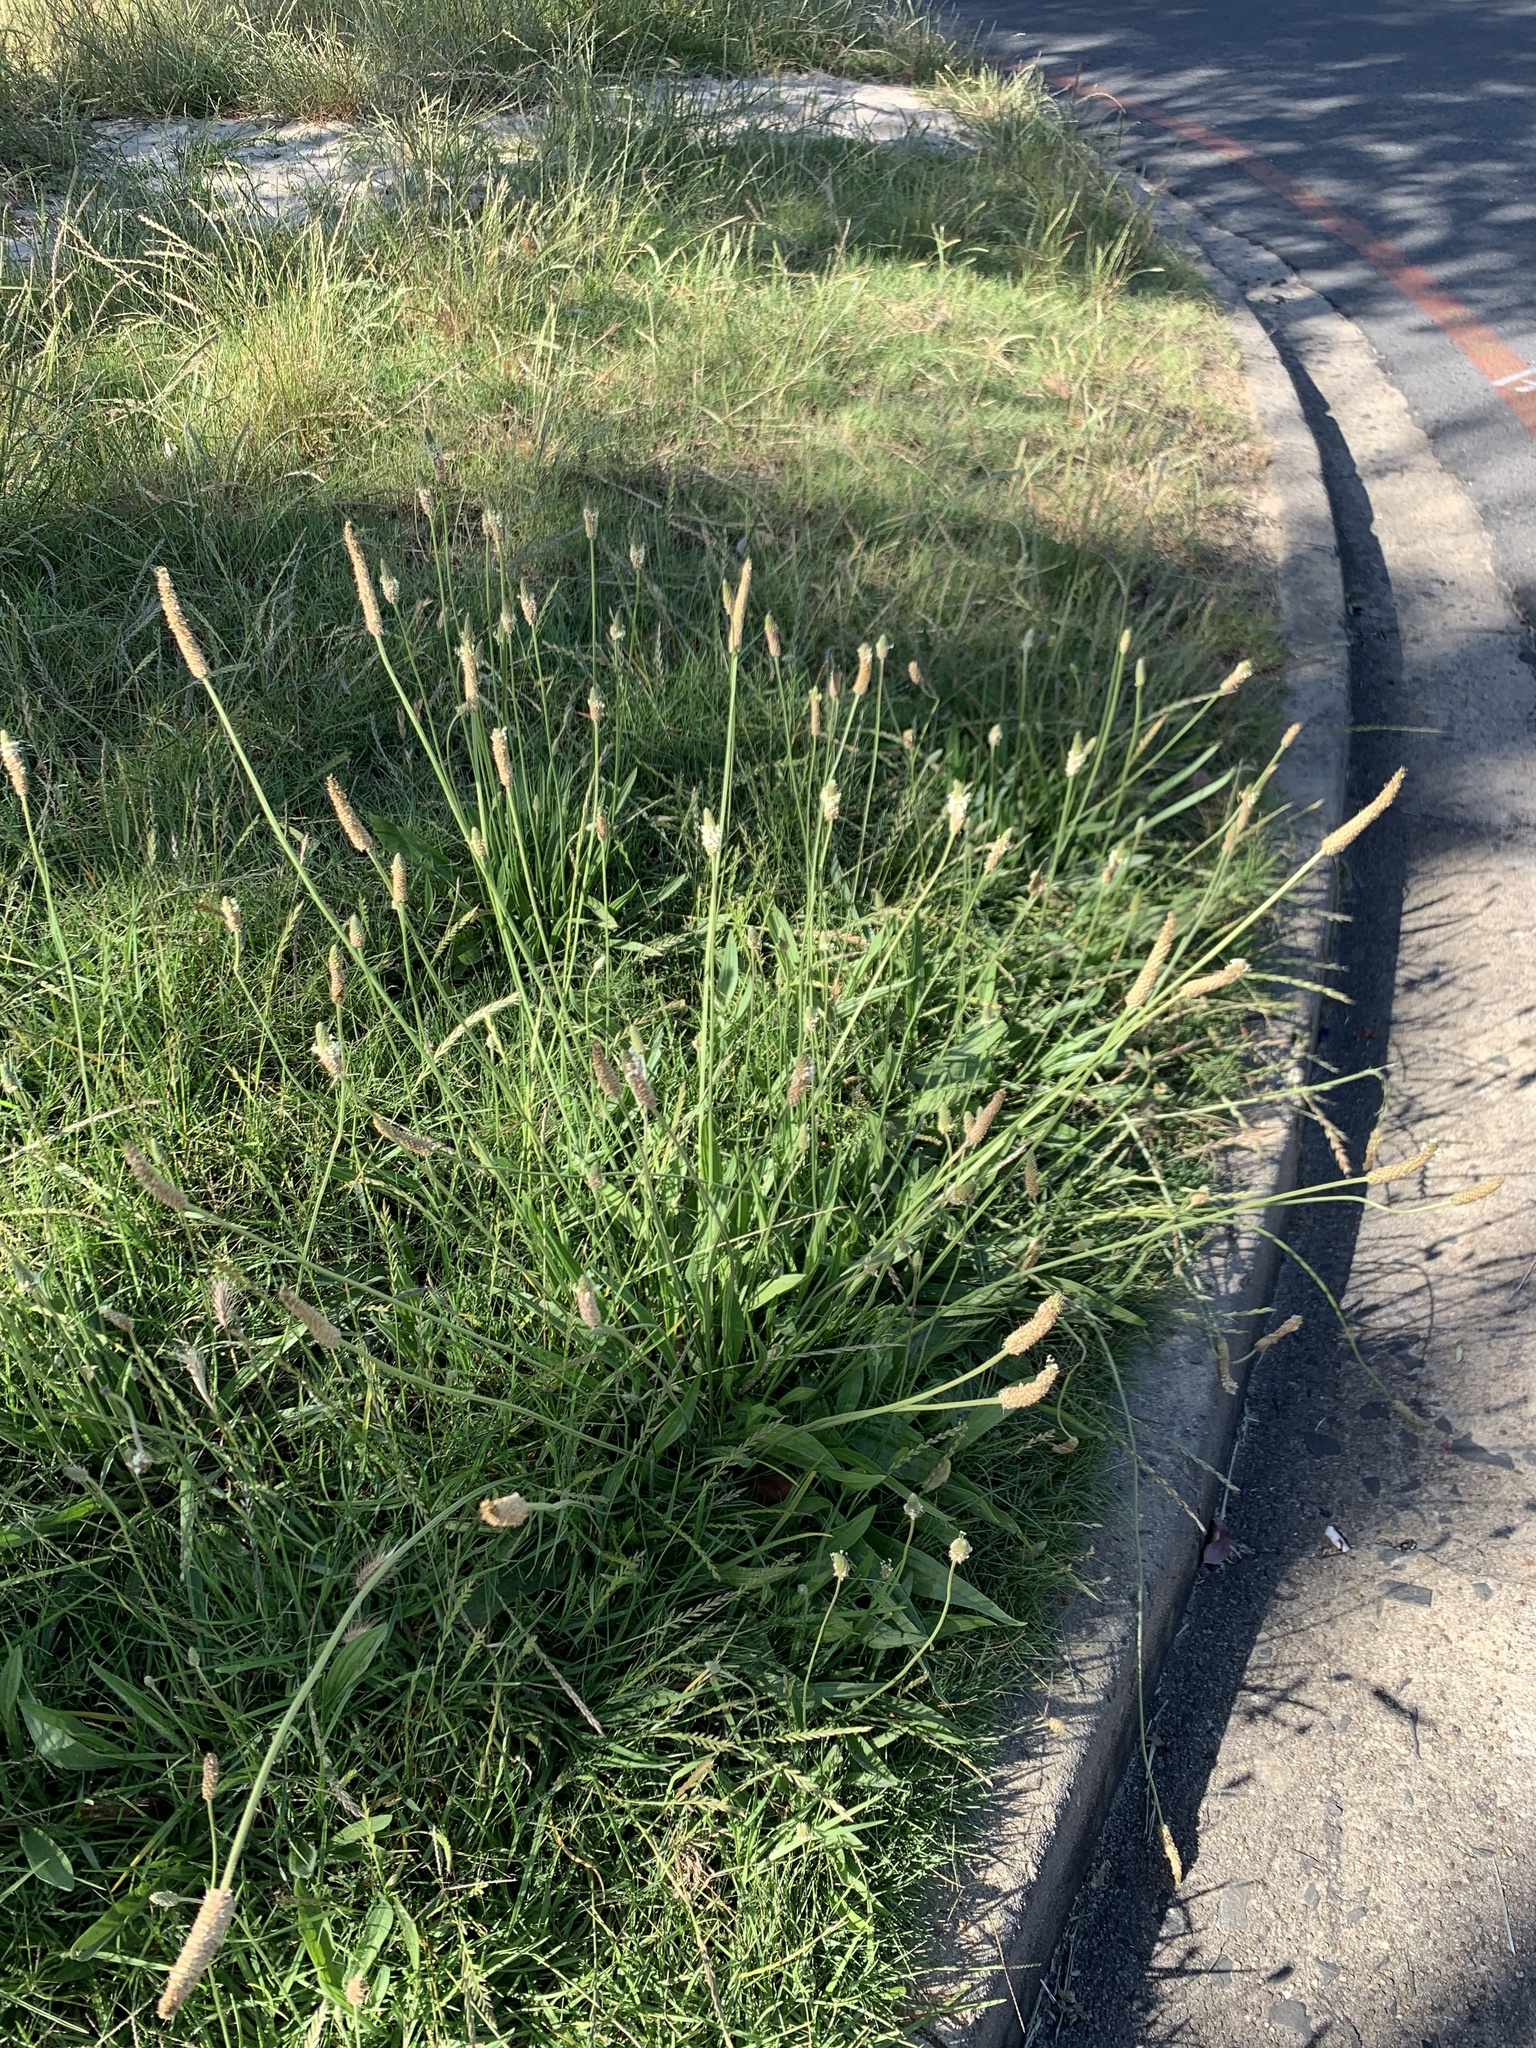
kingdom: Plantae
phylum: Tracheophyta
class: Magnoliopsida
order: Lamiales
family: Plantaginaceae
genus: Plantago
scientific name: Plantago lanceolata
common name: Ribwort plantain
